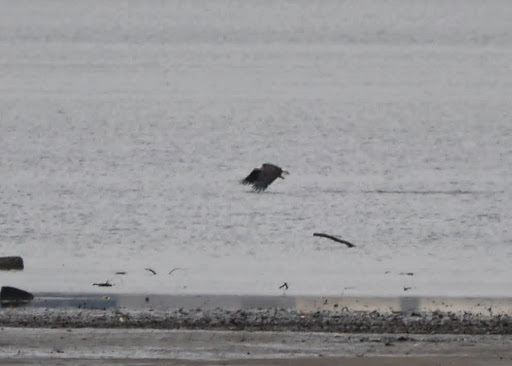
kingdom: Animalia
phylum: Chordata
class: Aves
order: Accipitriformes
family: Accipitridae
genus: Haliaeetus
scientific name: Haliaeetus leucocephalus
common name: Bald eagle
